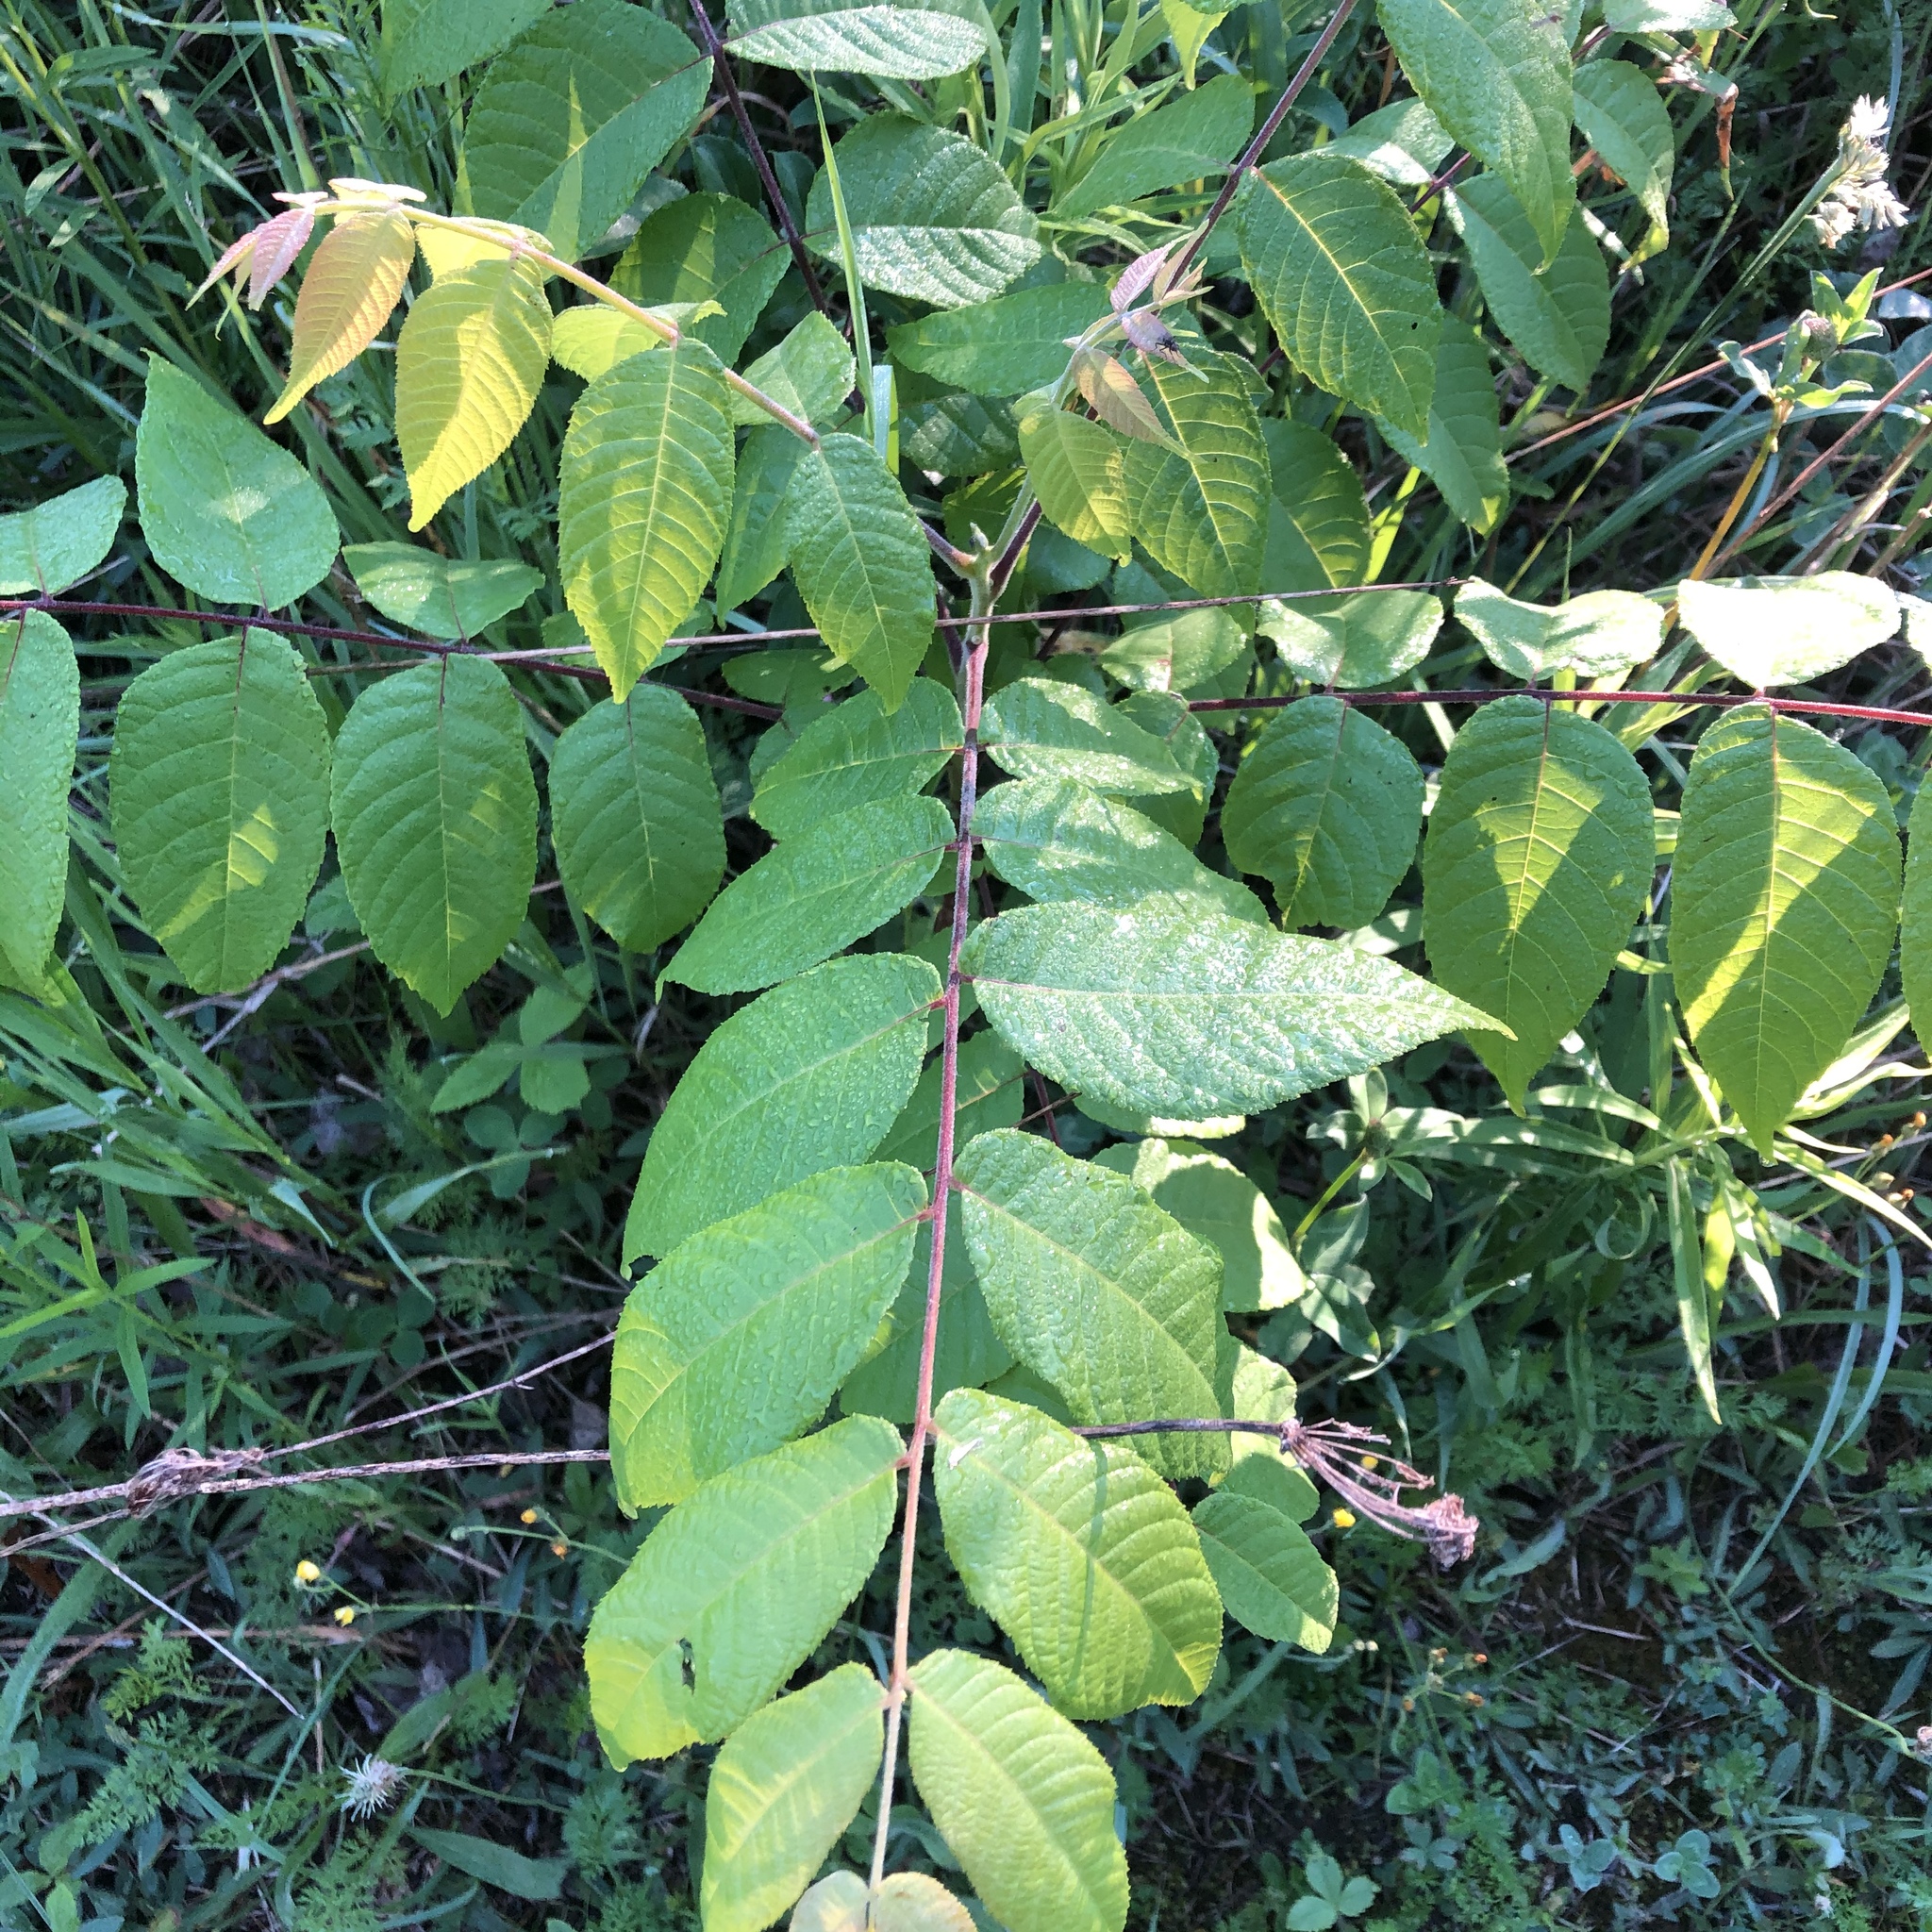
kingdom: Plantae
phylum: Tracheophyta
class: Magnoliopsida
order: Fagales
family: Juglandaceae
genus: Juglans
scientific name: Juglans nigra
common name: Black walnut
